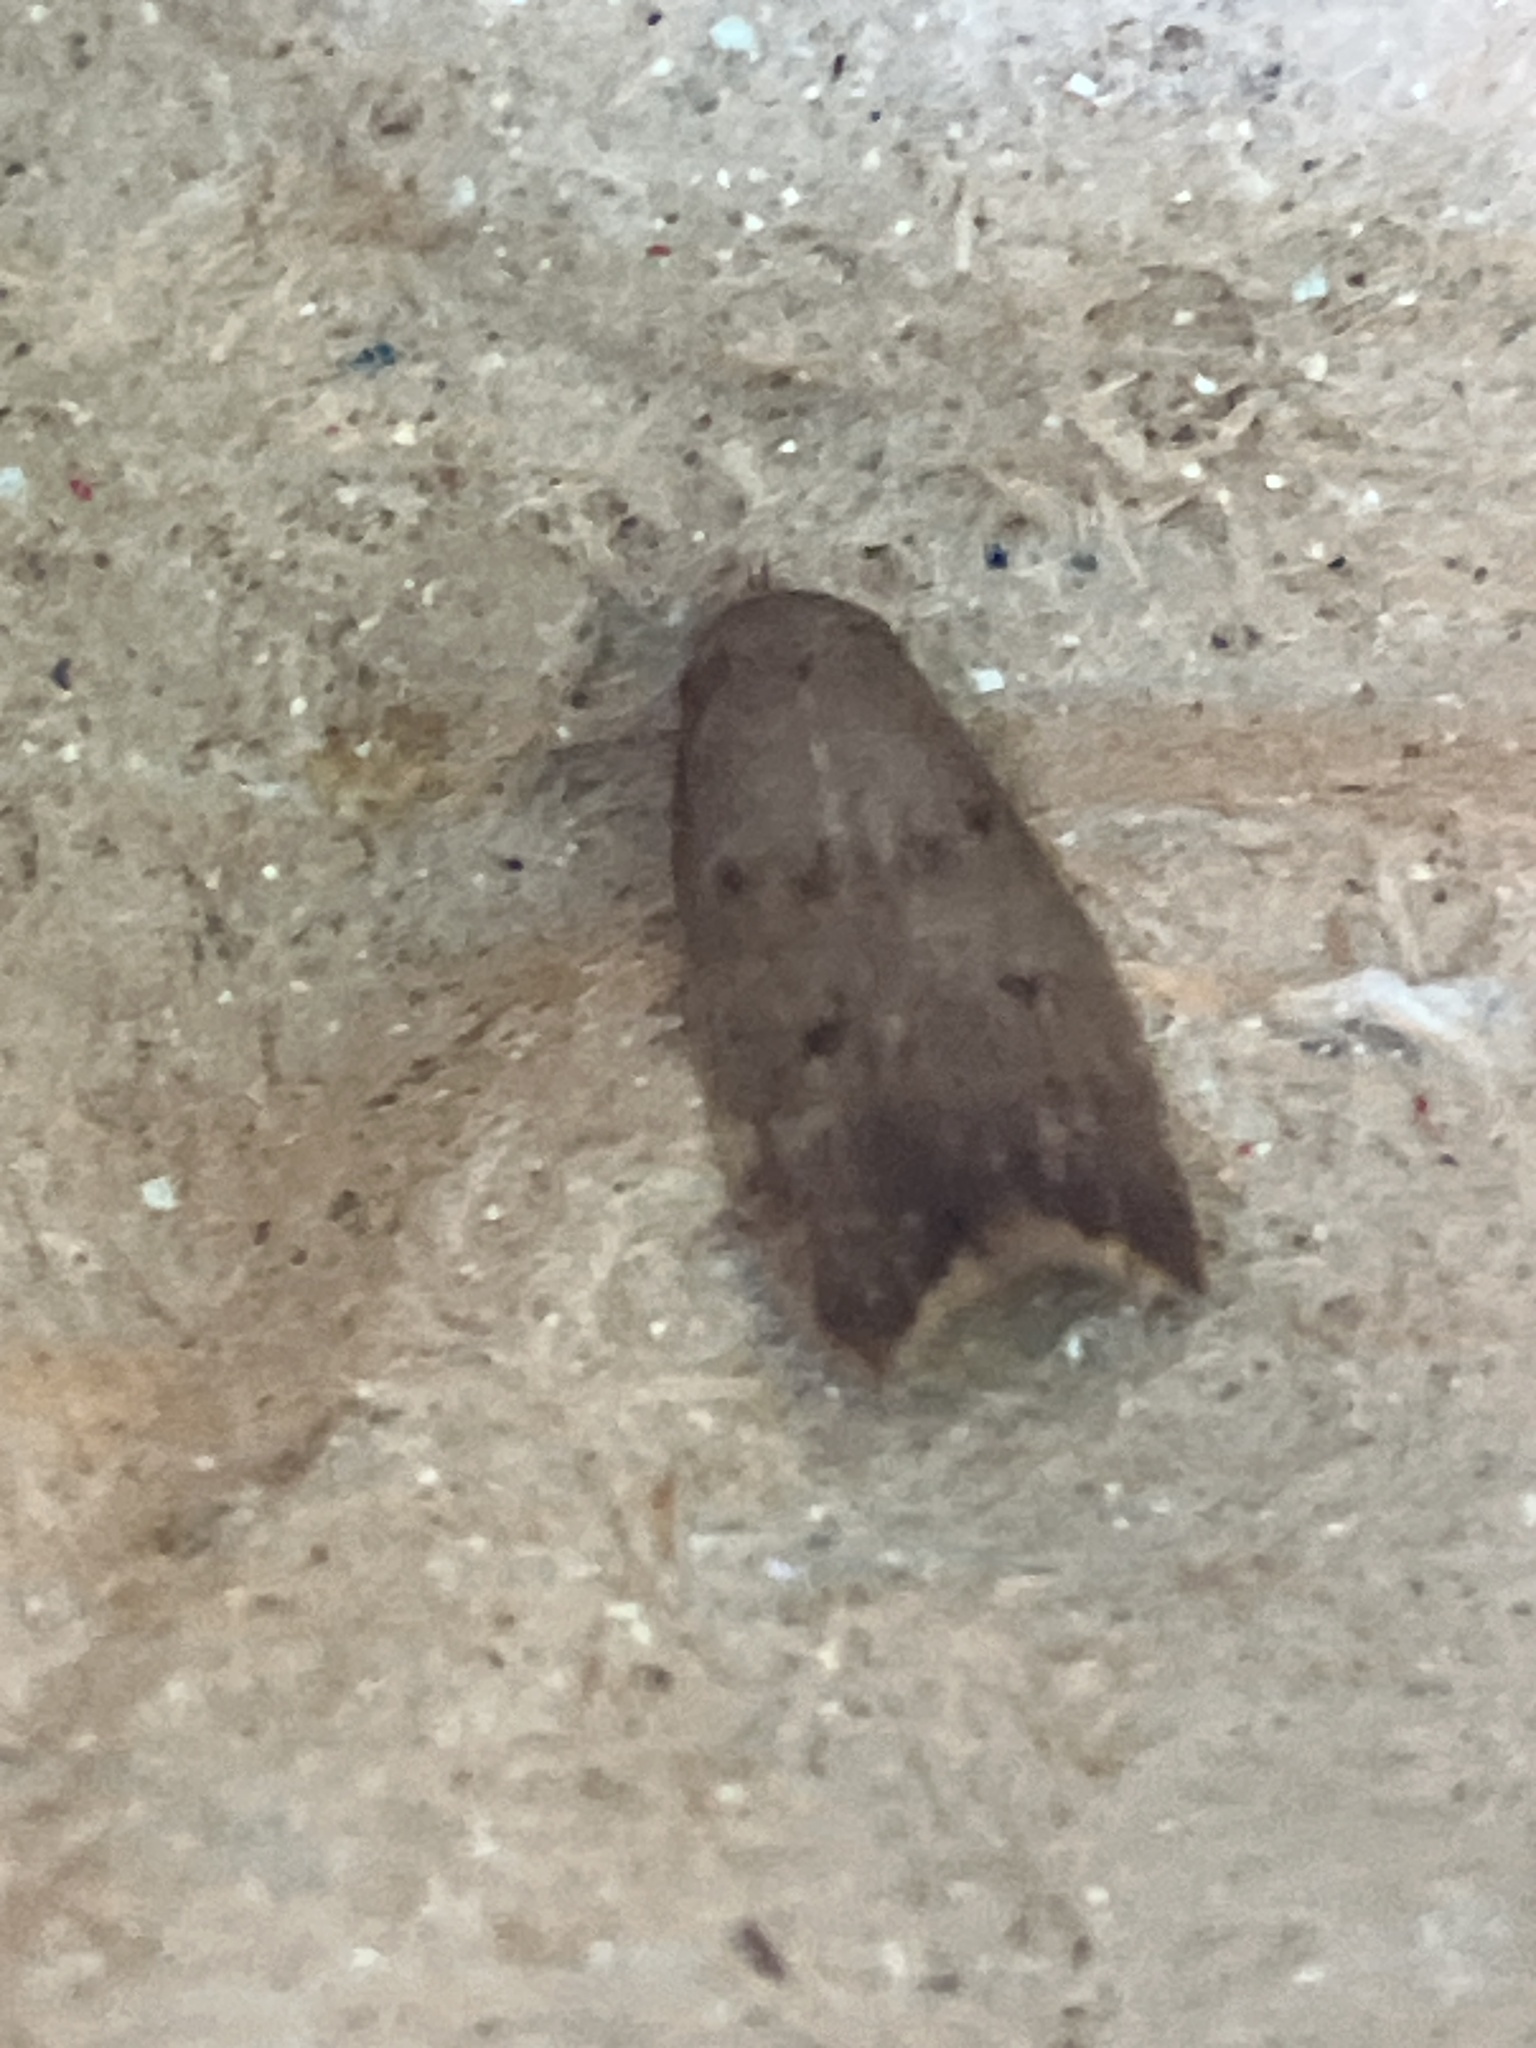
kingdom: Animalia
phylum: Arthropoda
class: Insecta
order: Lepidoptera
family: Oecophoridae
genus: Tachystola
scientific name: Tachystola acroxantha
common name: Ruddy streak
